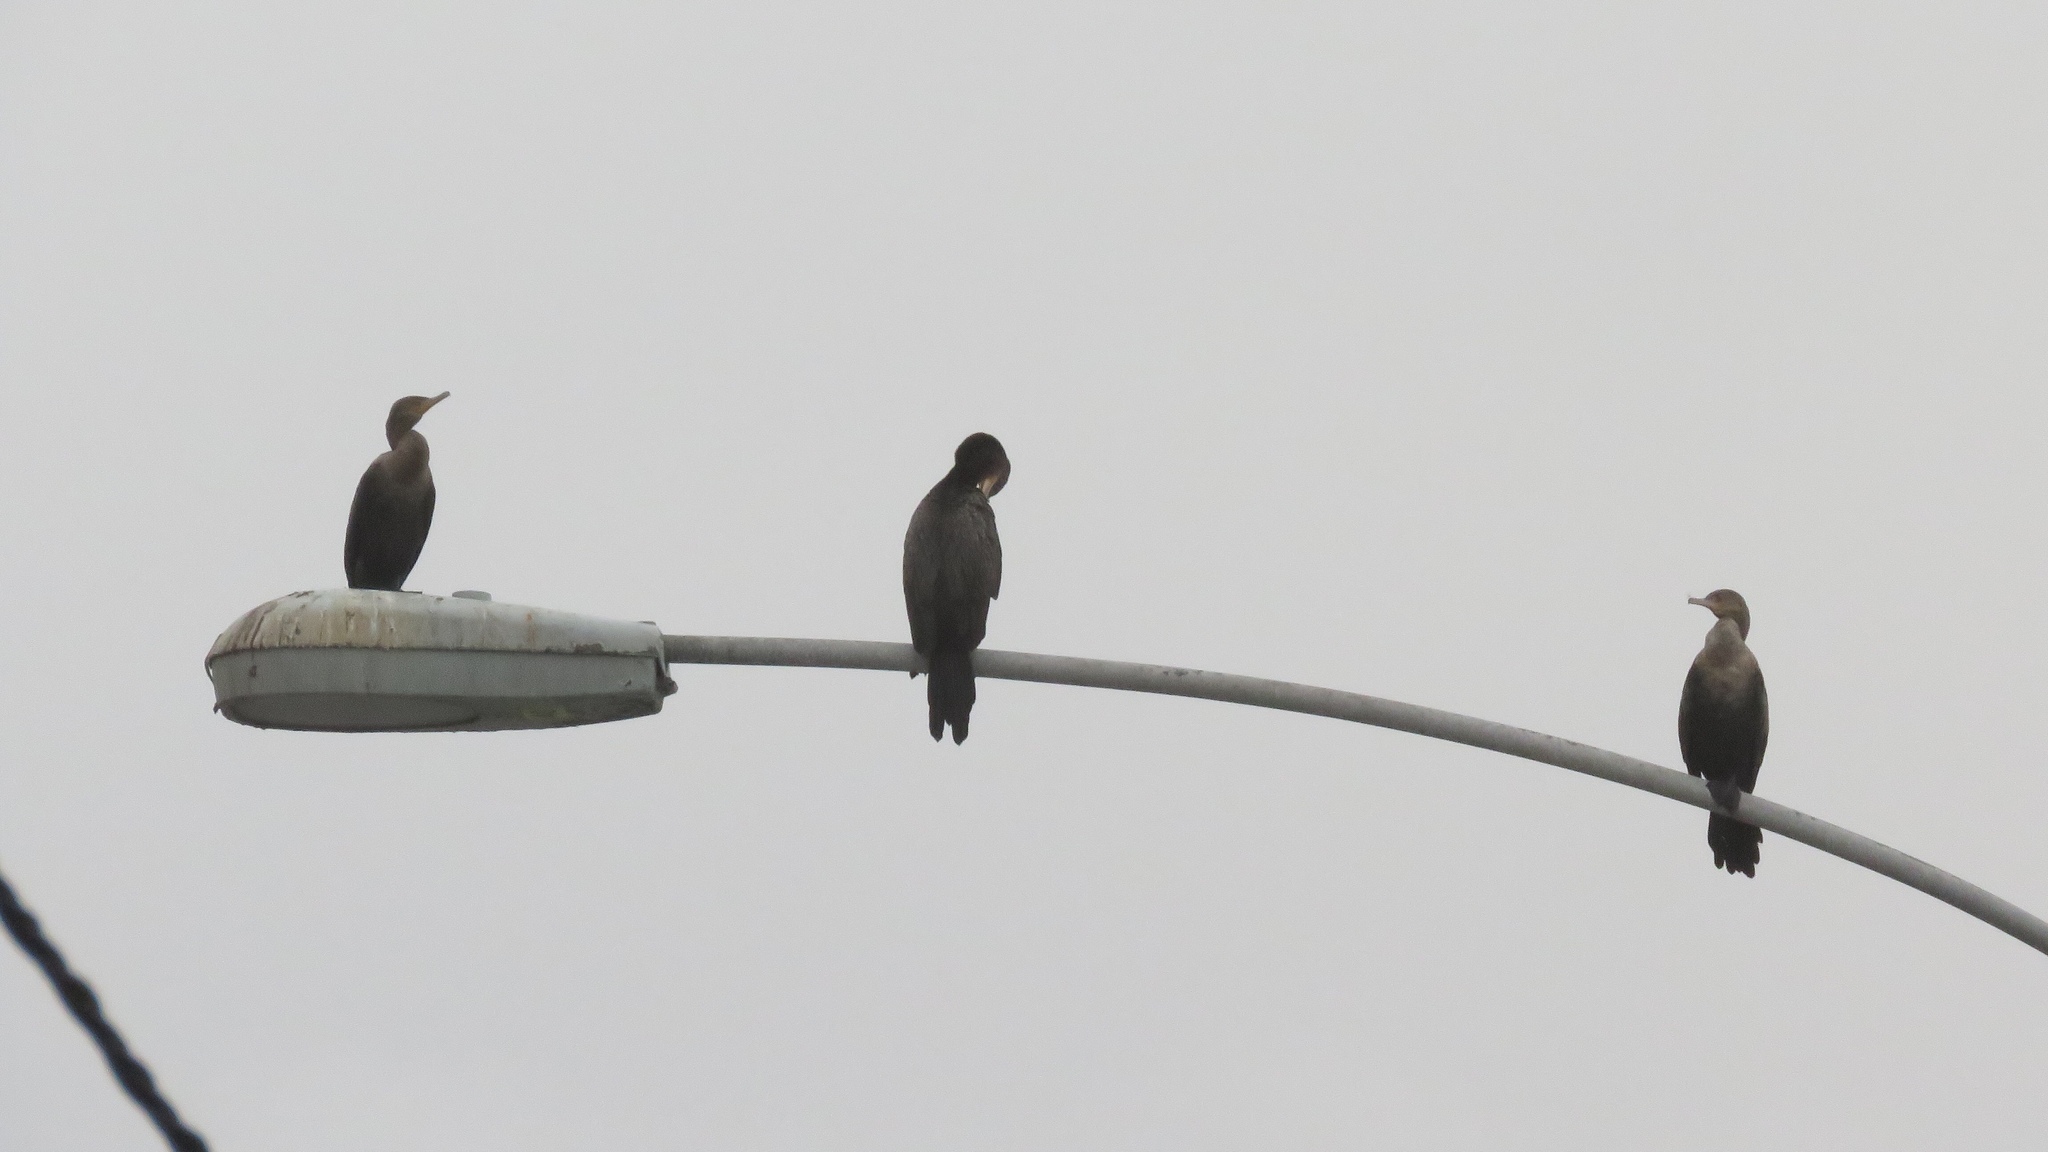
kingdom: Animalia
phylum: Chordata
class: Aves
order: Suliformes
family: Phalacrocoracidae
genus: Phalacrocorax
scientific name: Phalacrocorax brasilianus
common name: Neotropic cormorant
